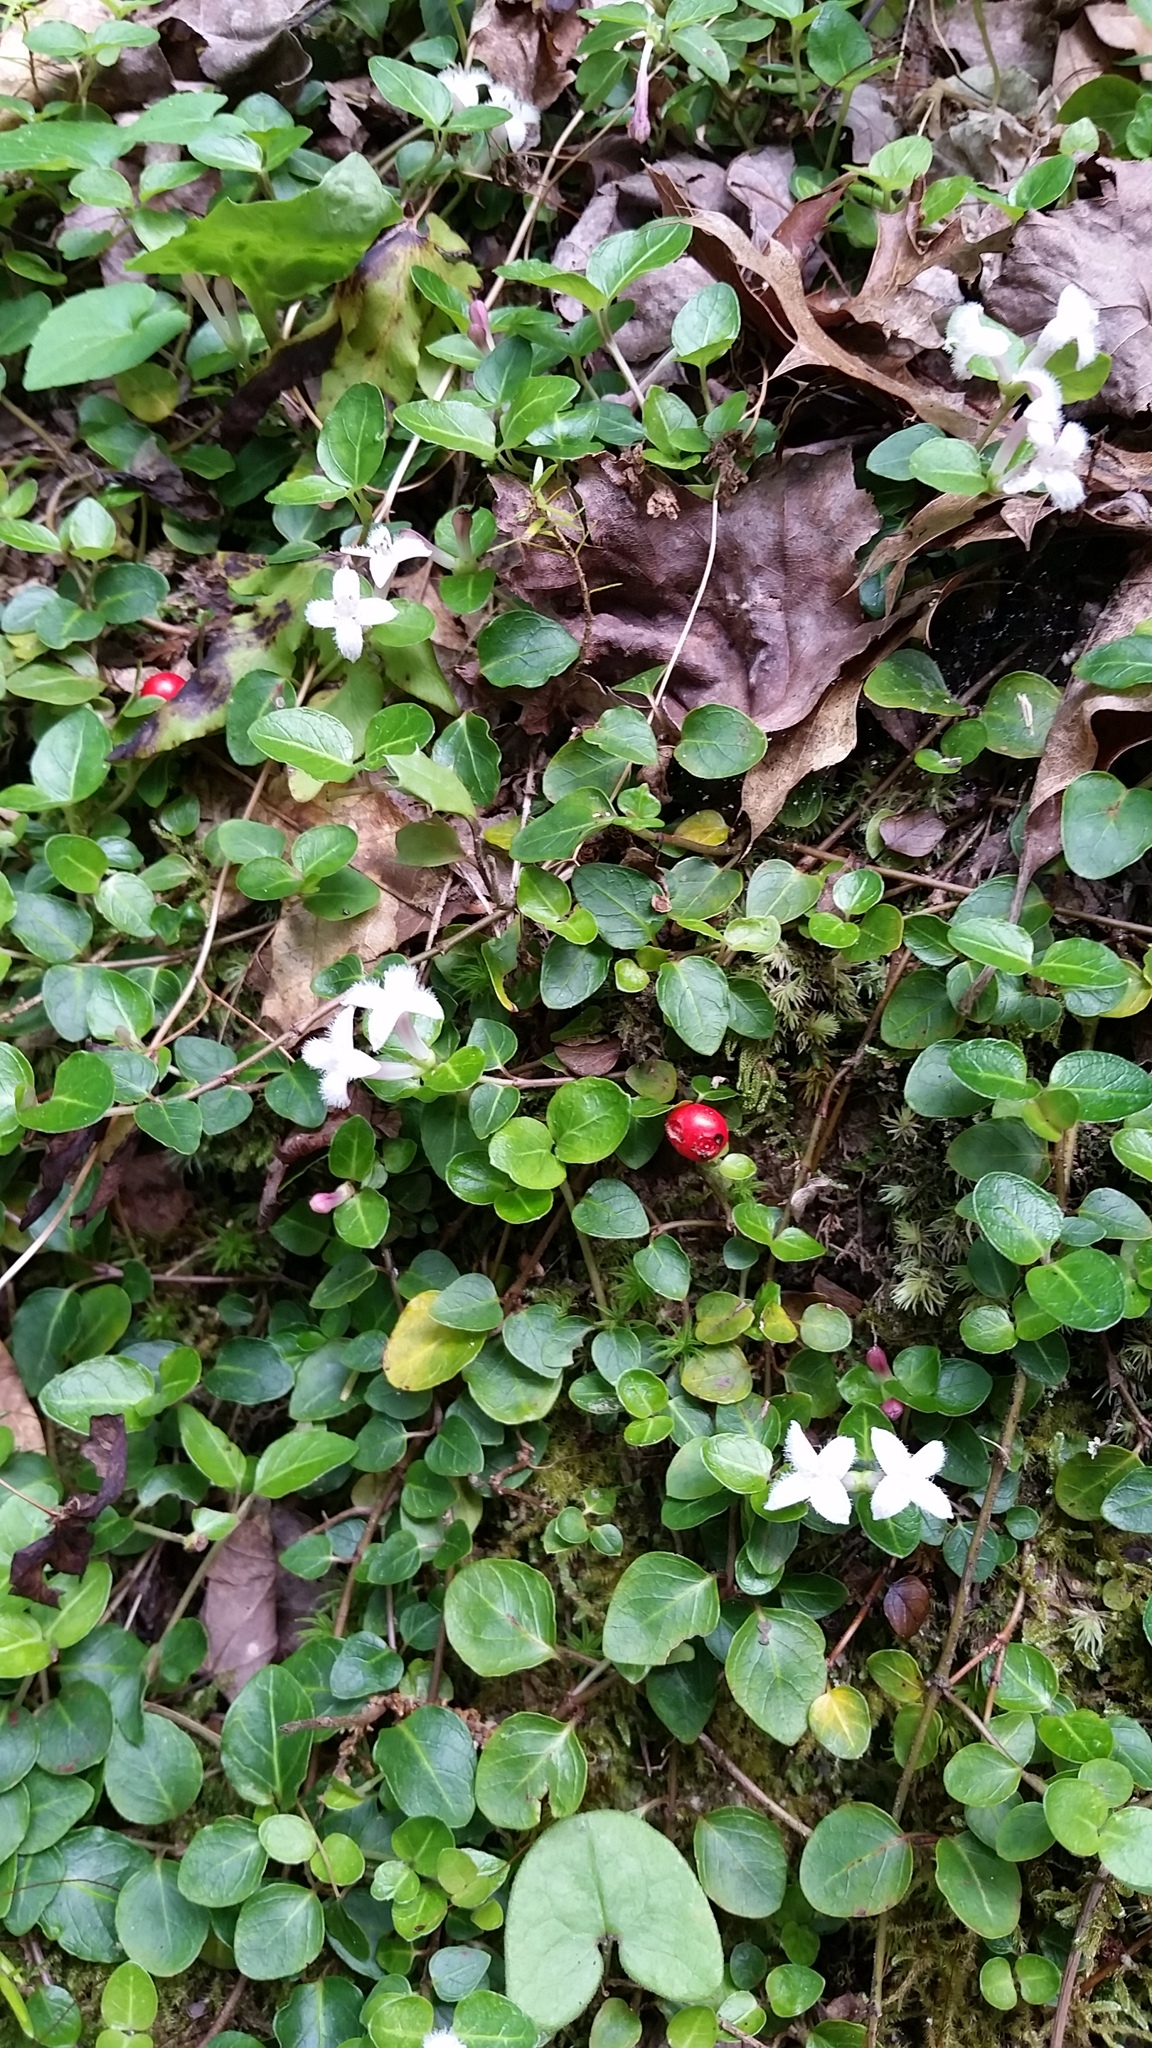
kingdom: Plantae
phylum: Tracheophyta
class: Magnoliopsida
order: Gentianales
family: Rubiaceae
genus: Mitchella
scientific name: Mitchella repens
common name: Partridge-berry
